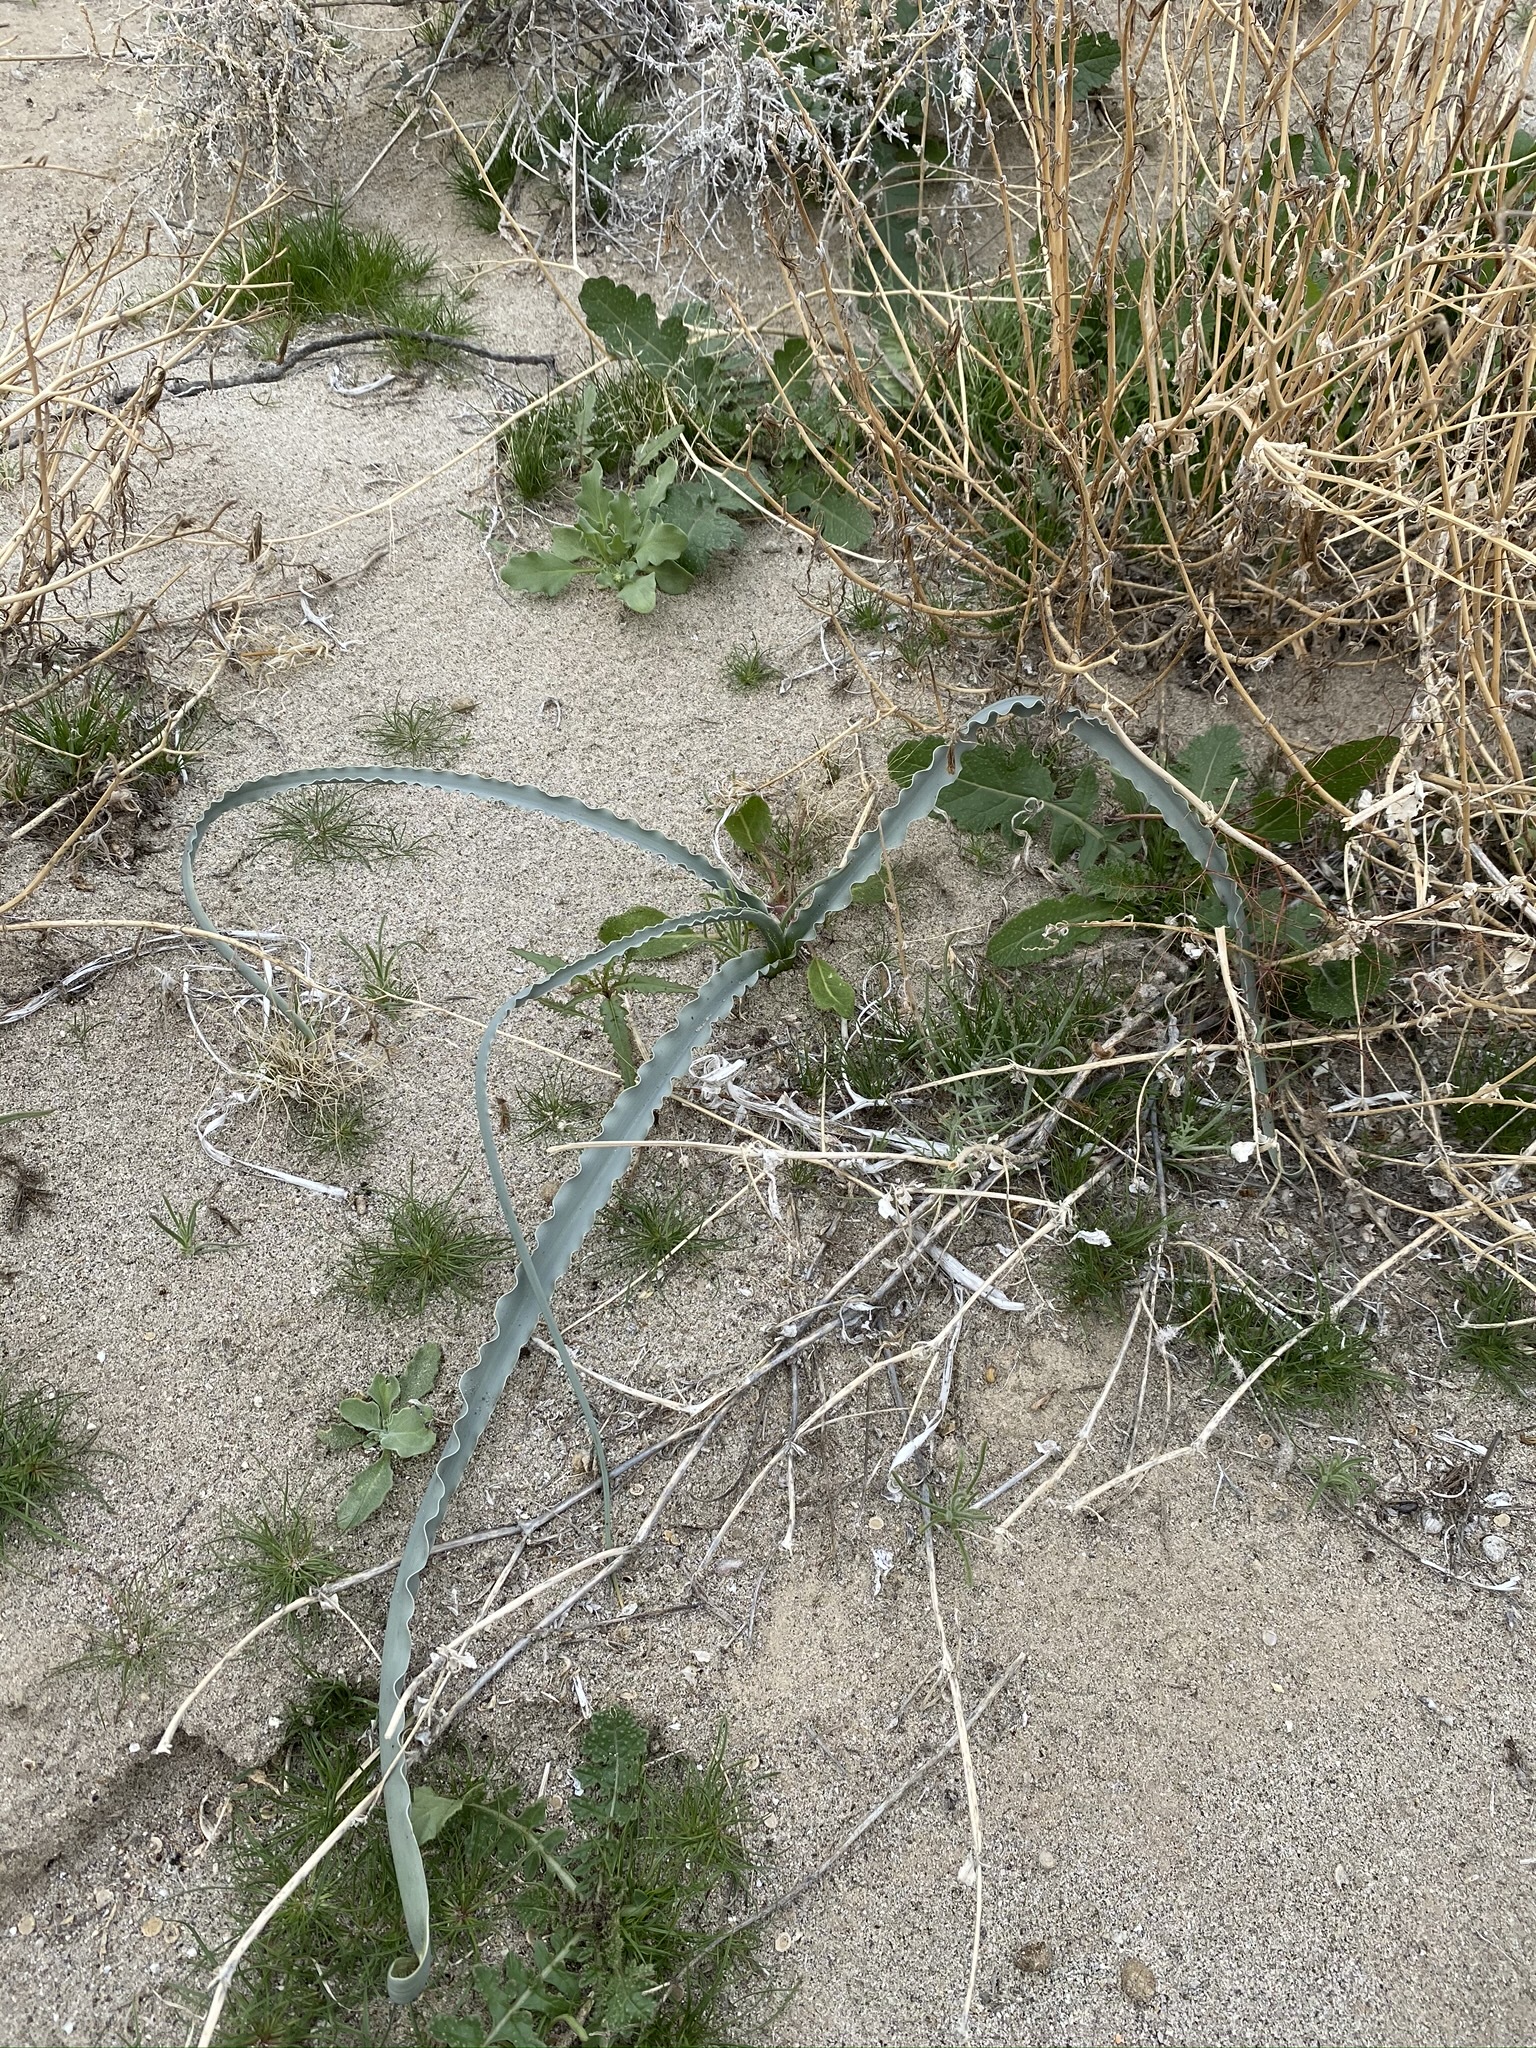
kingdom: Plantae
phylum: Tracheophyta
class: Liliopsida
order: Asparagales
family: Asparagaceae
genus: Hesperocallis
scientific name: Hesperocallis undulata
